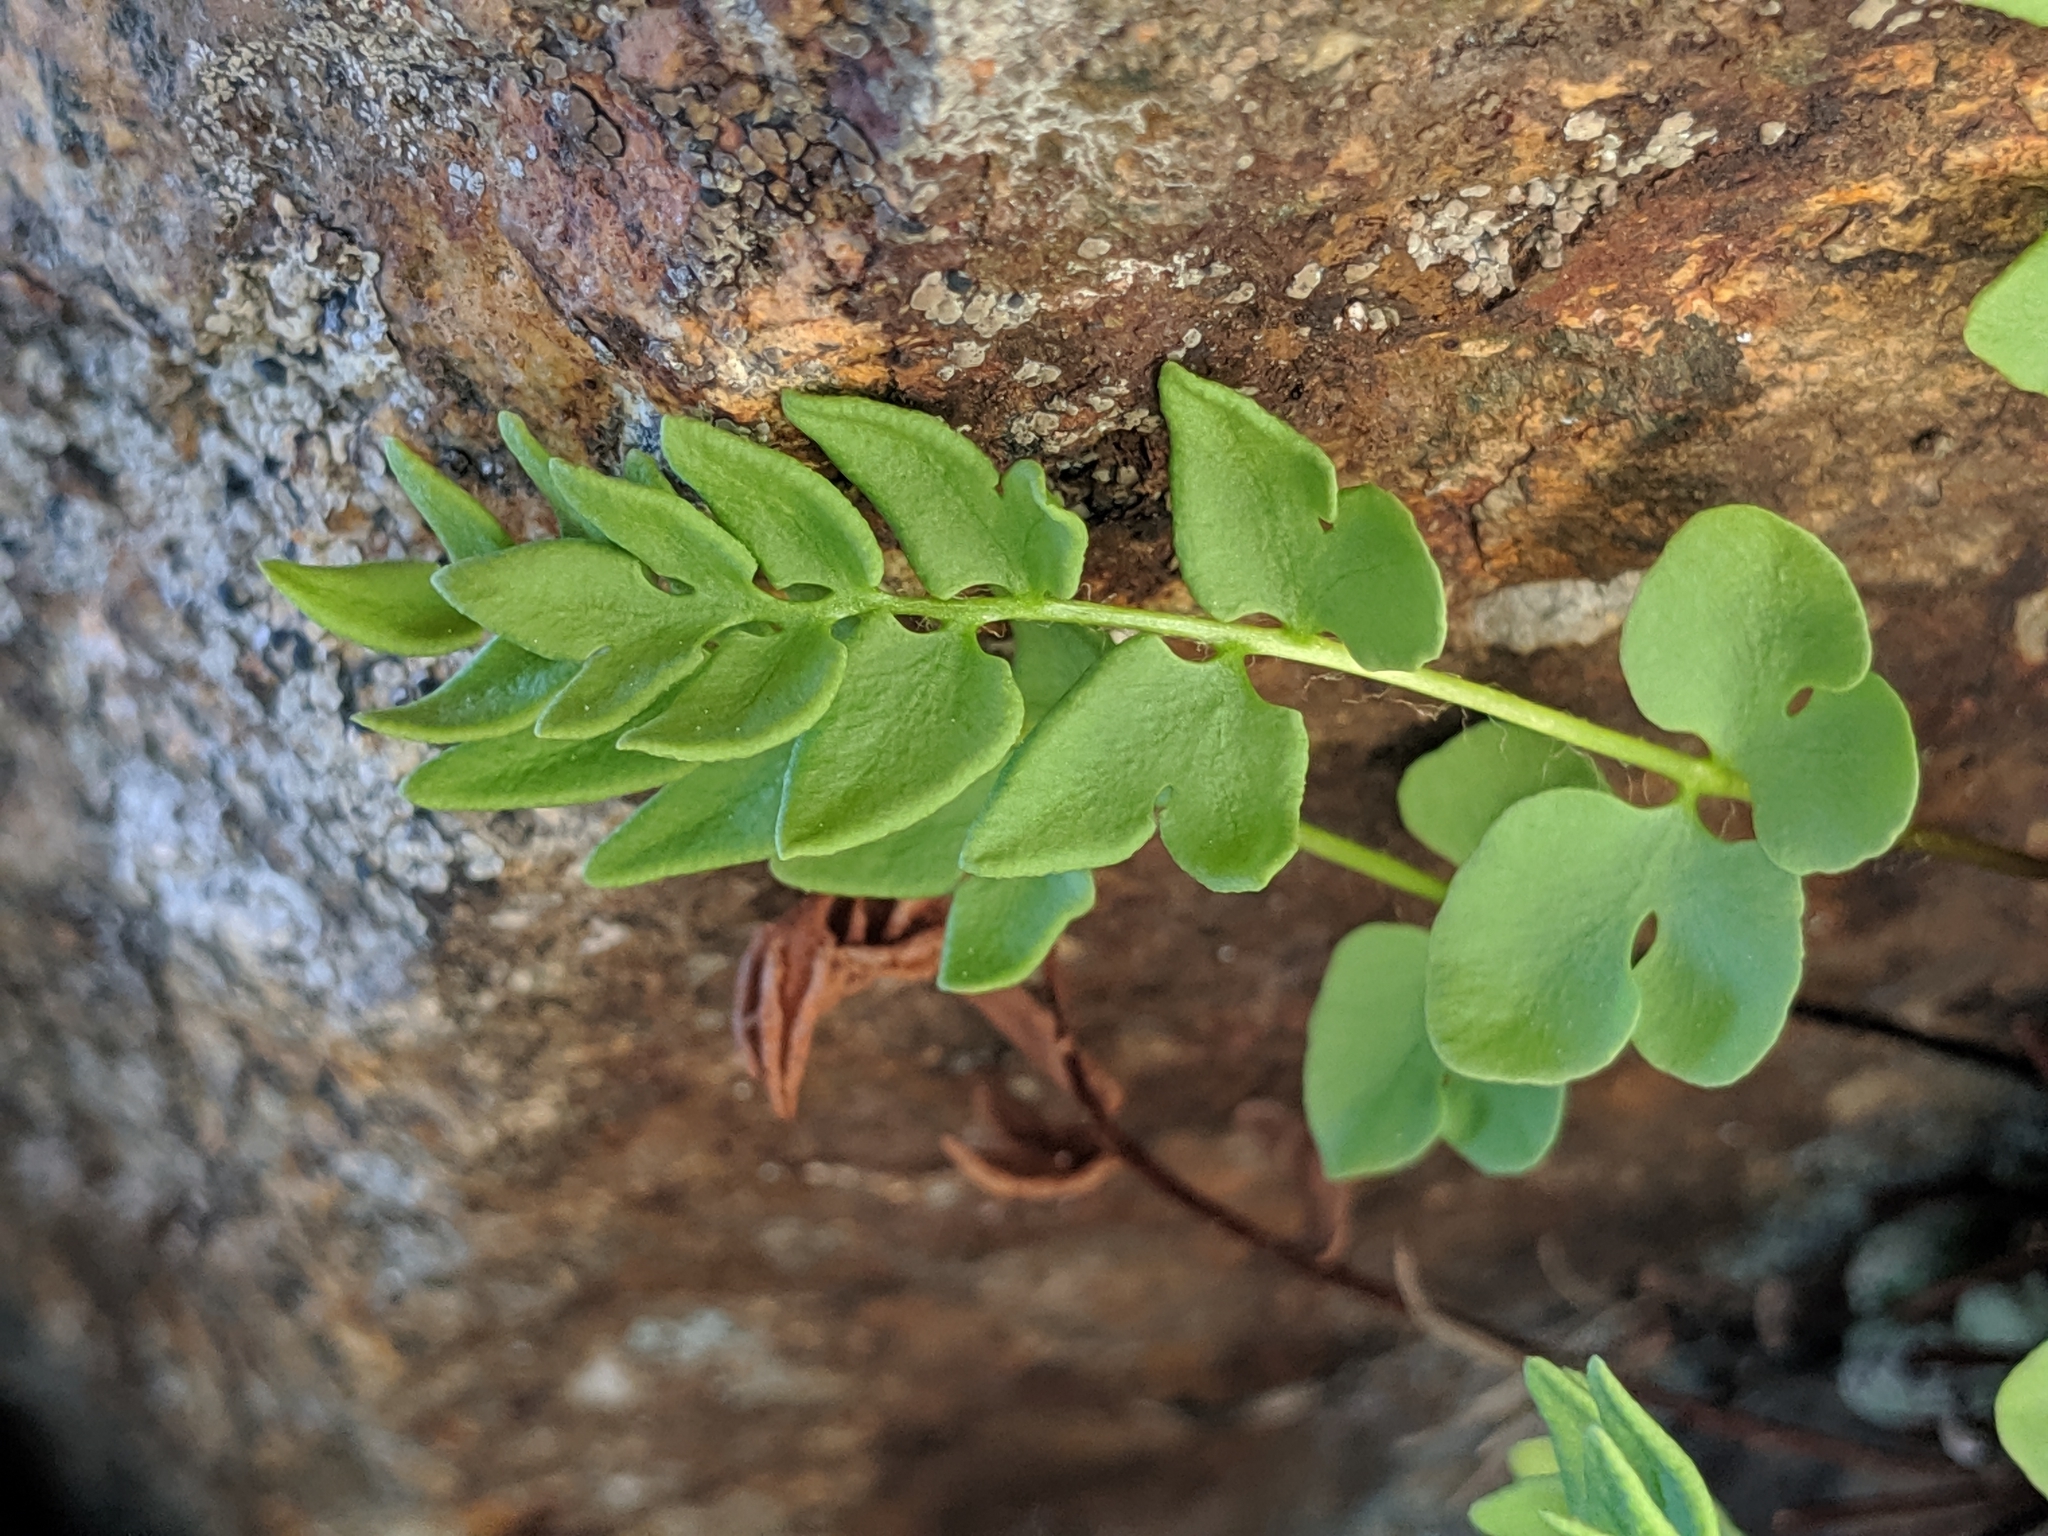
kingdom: Plantae
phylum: Tracheophyta
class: Polypodiopsida
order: Polypodiales
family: Pteridaceae
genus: Pellaea
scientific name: Pellaea breweri
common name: Brewer's cliffbrake
